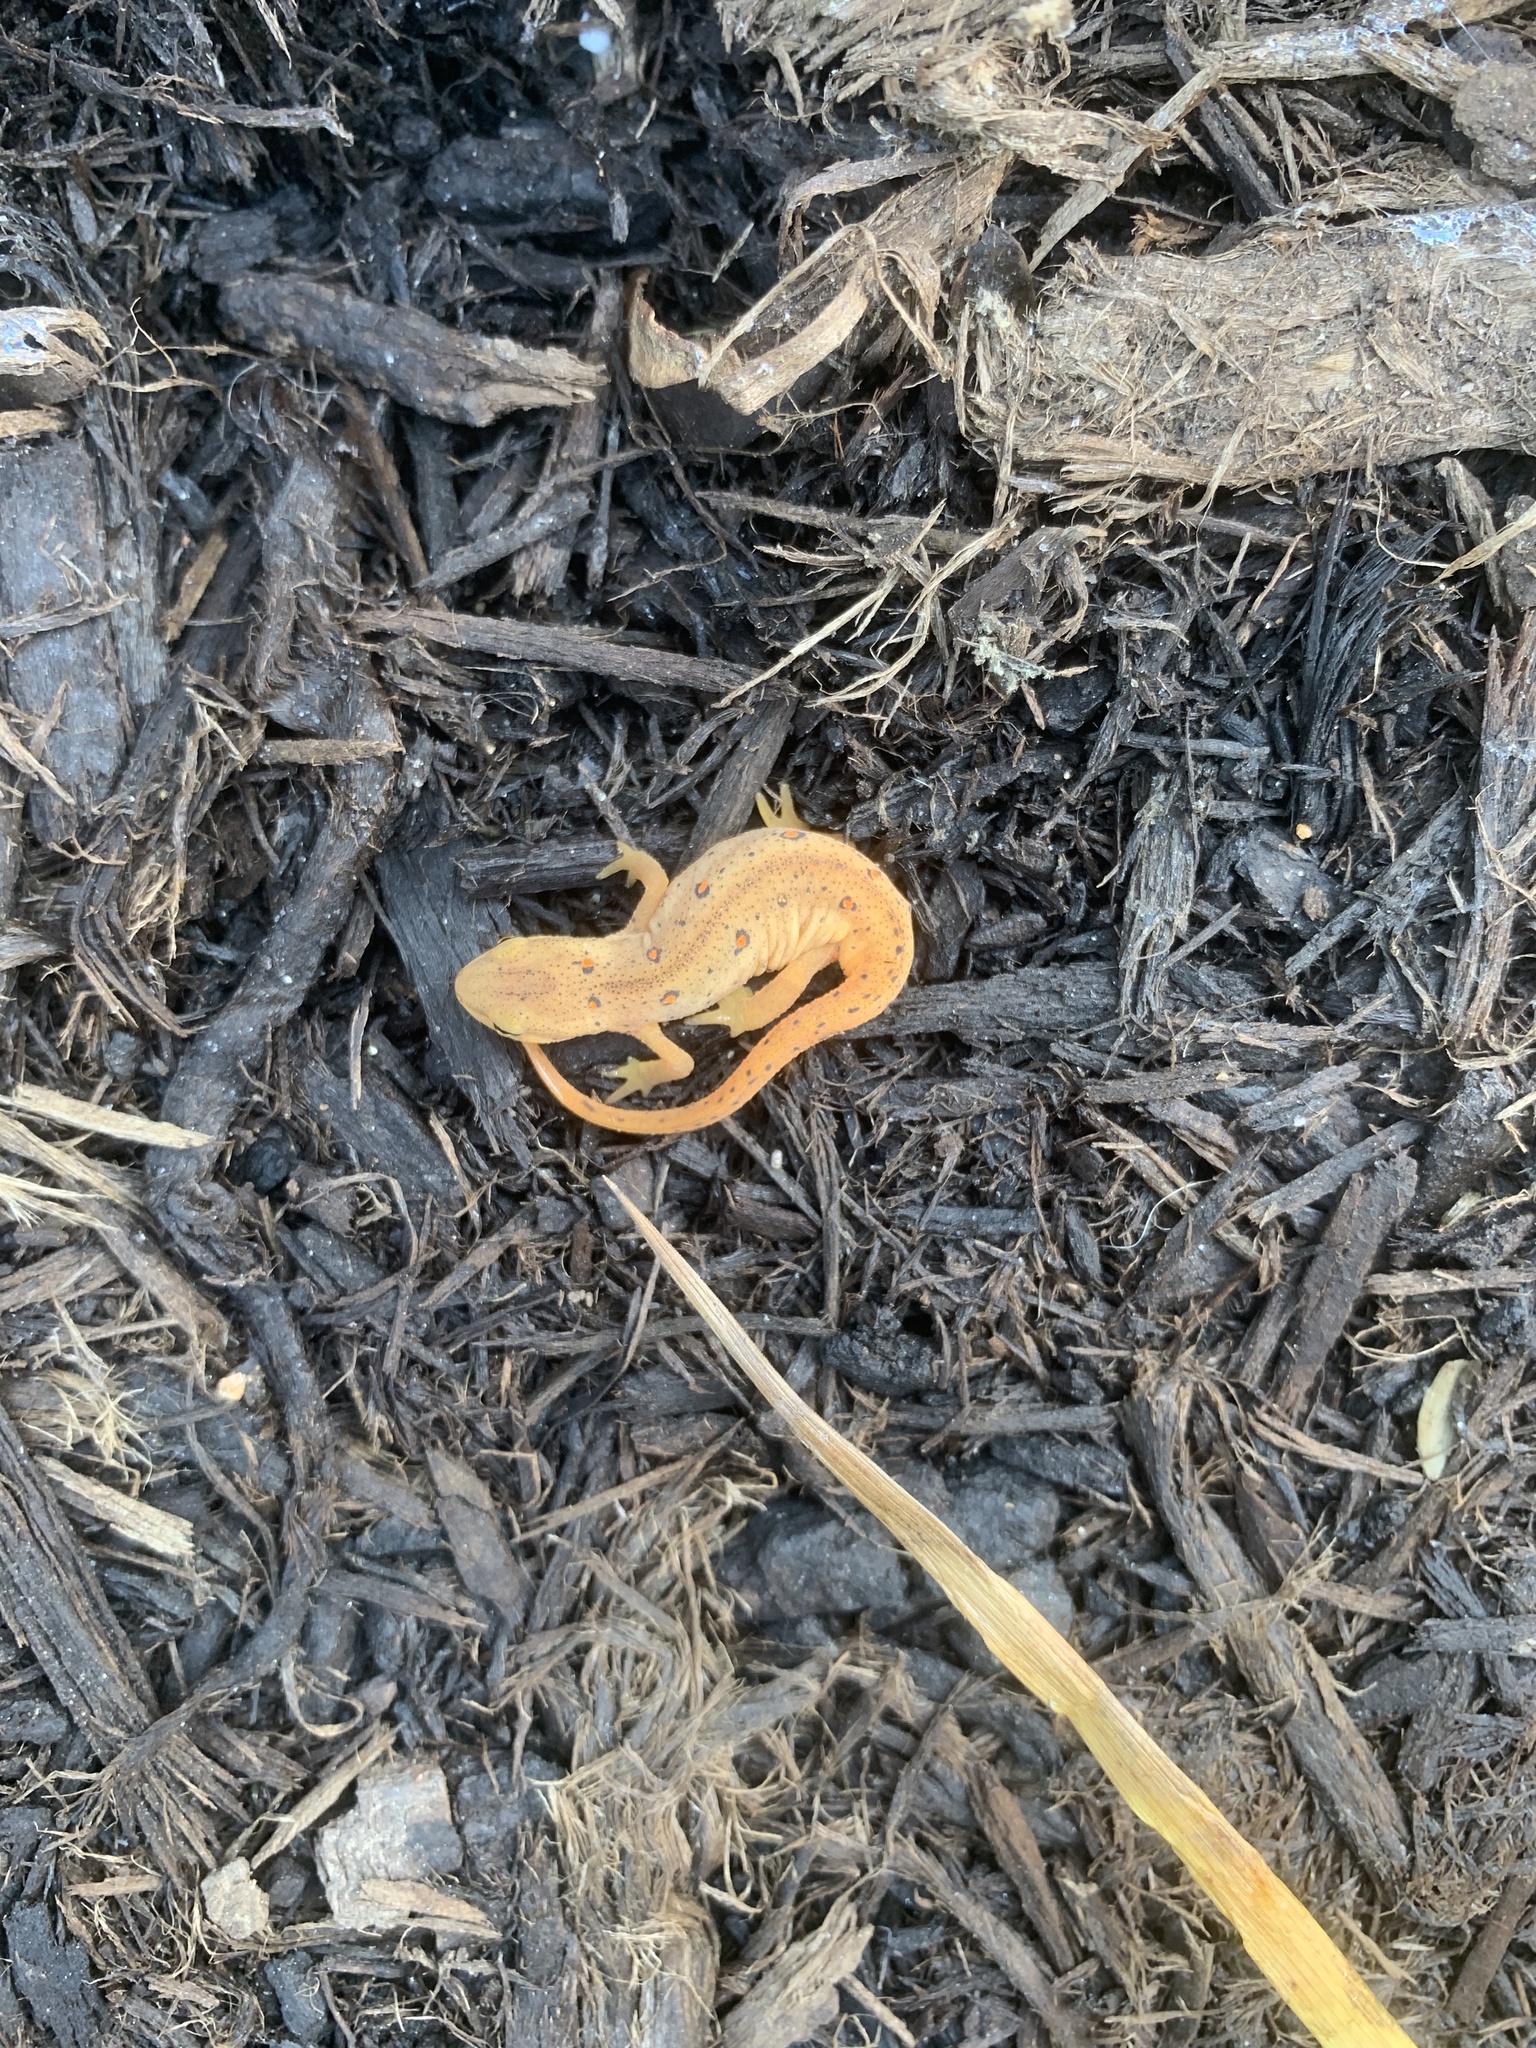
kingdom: Animalia
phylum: Chordata
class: Amphibia
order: Caudata
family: Salamandridae
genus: Notophthalmus
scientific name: Notophthalmus viridescens
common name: Eastern newt
